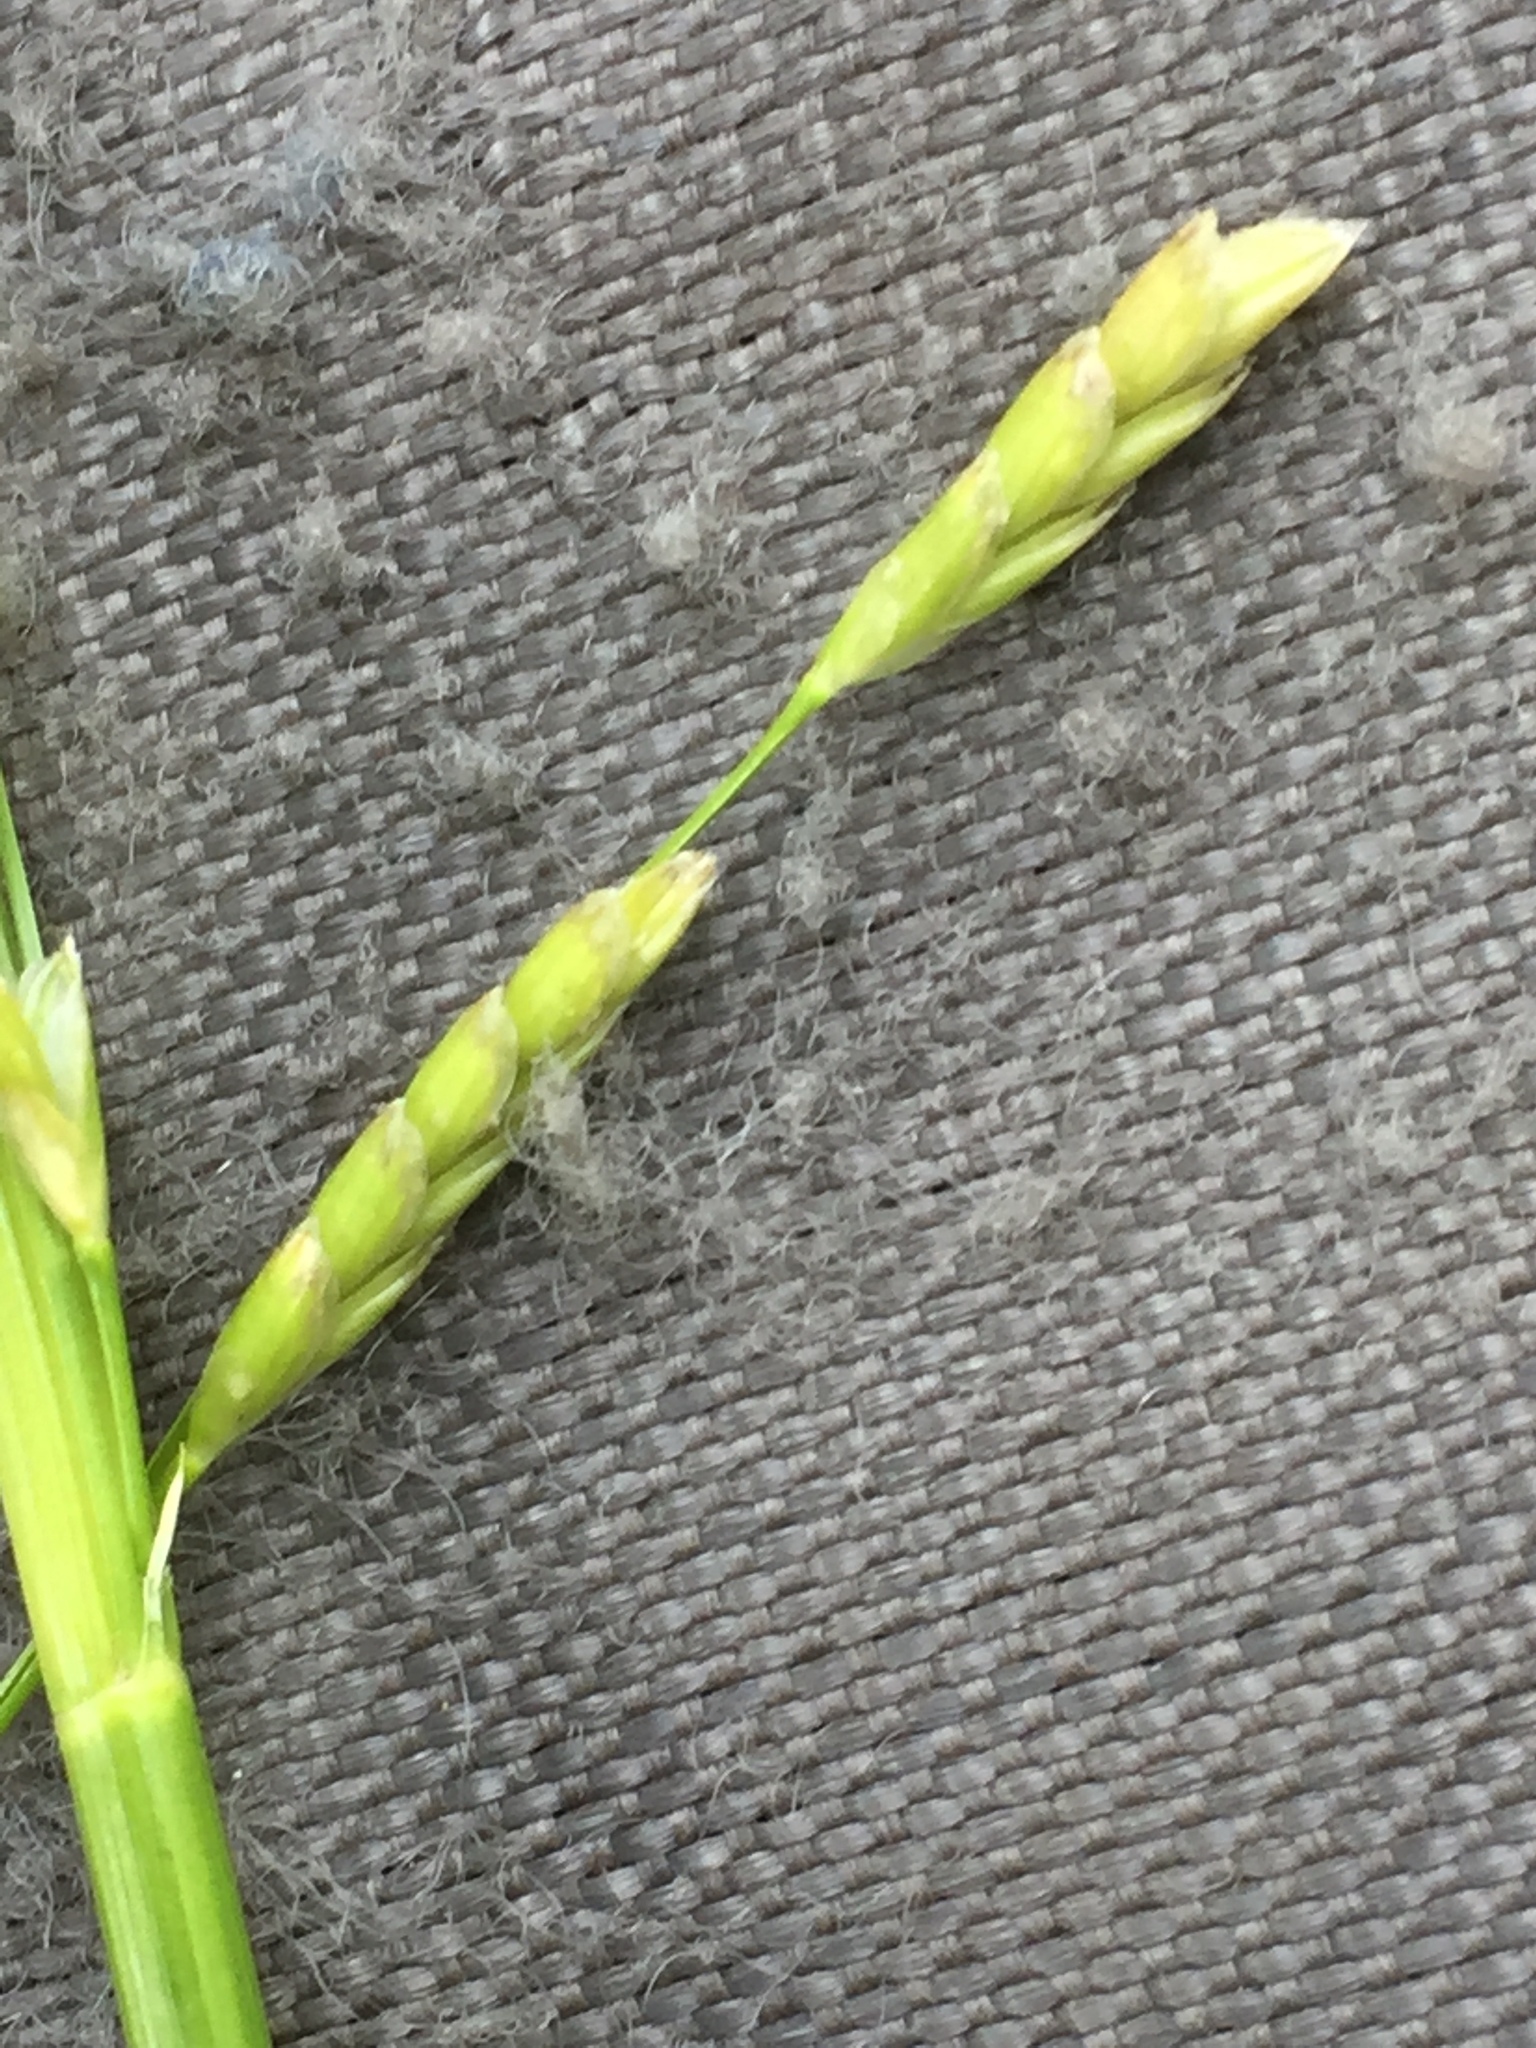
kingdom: Plantae
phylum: Tracheophyta
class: Liliopsida
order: Poales
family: Poaceae
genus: Glyceria
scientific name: Glyceria notata
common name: Plicate sweet-grass
